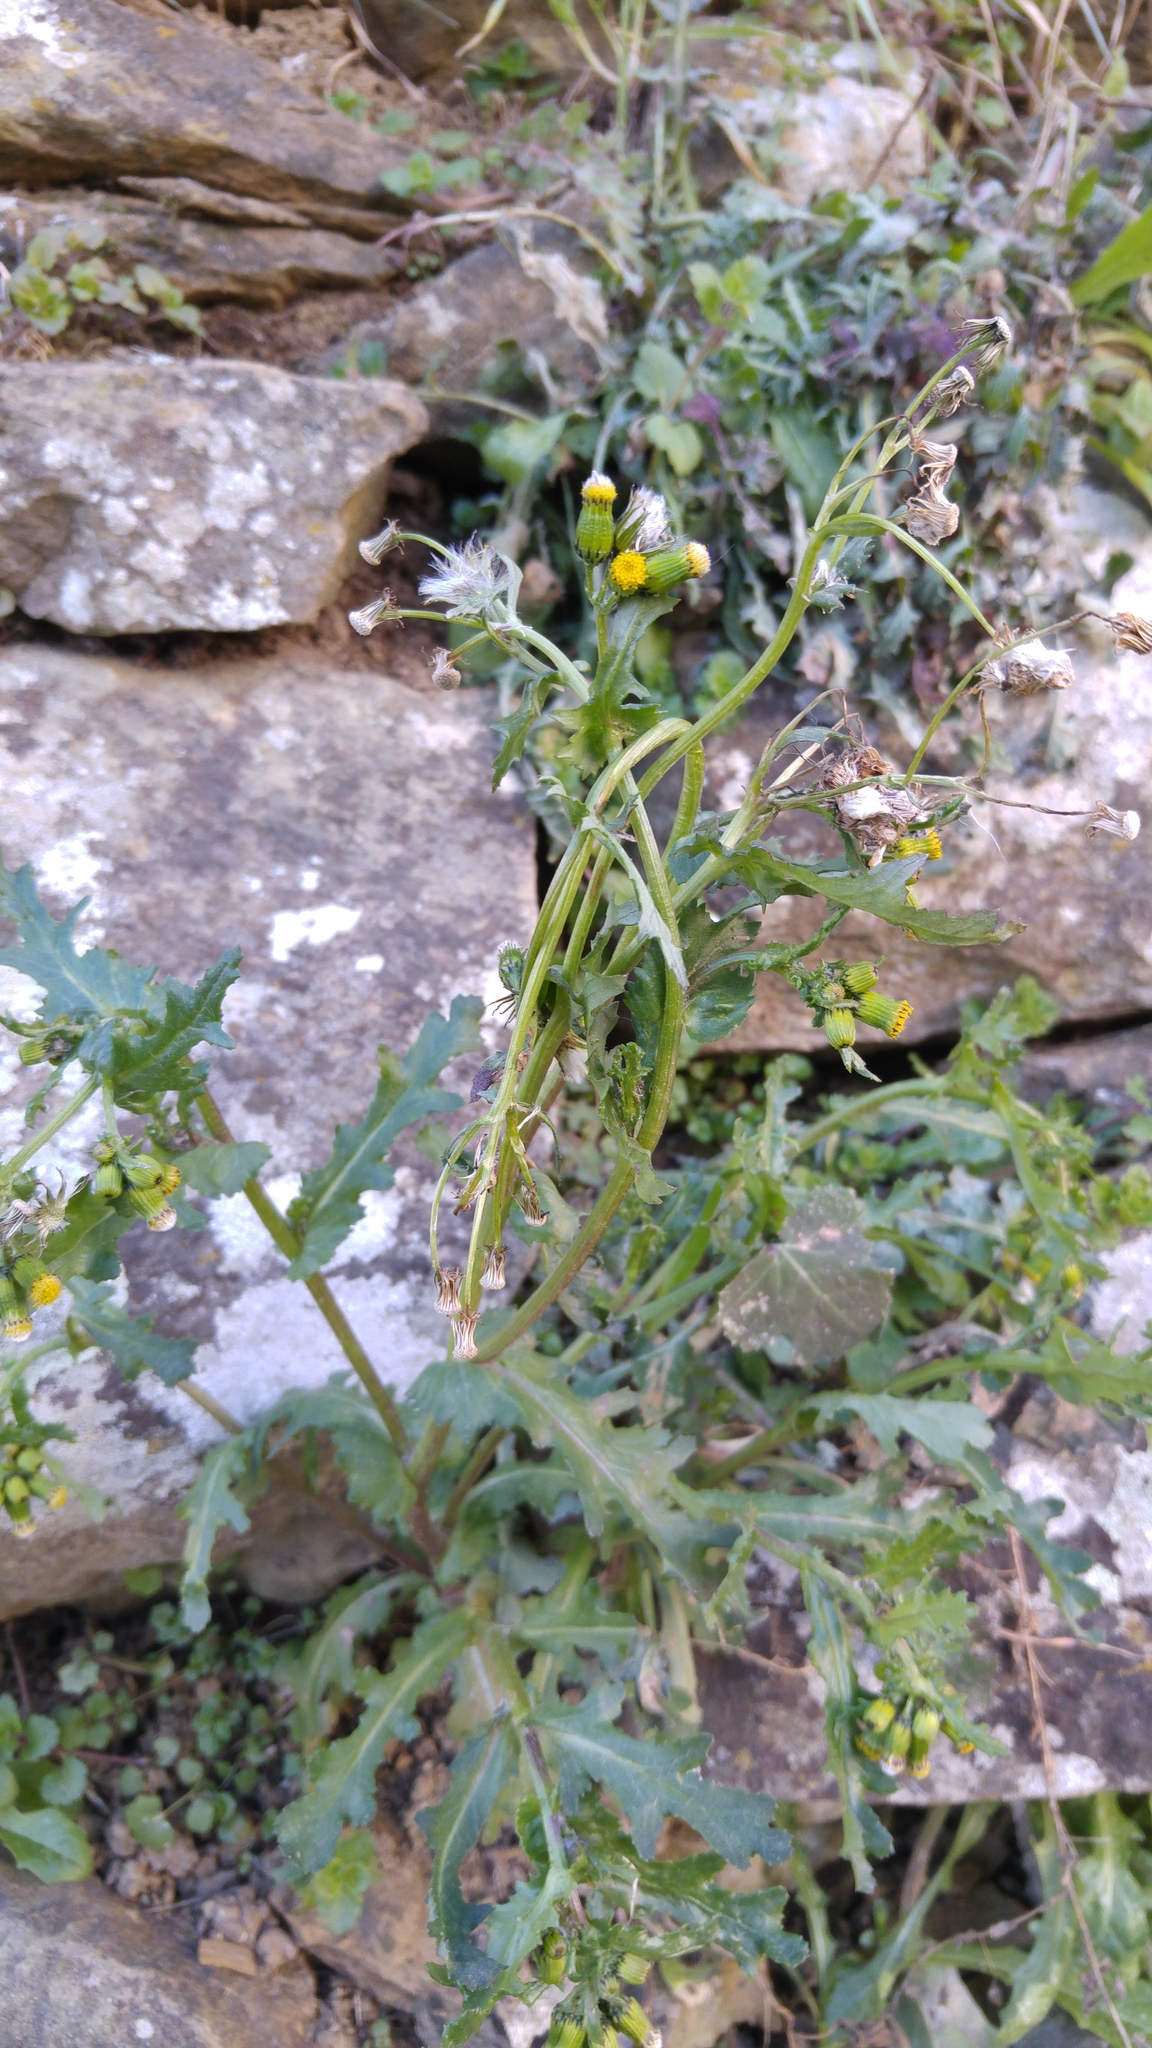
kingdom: Plantae
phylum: Tracheophyta
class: Magnoliopsida
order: Asterales
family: Asteraceae
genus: Senecio
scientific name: Senecio vulgaris
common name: Old-man-in-the-spring
